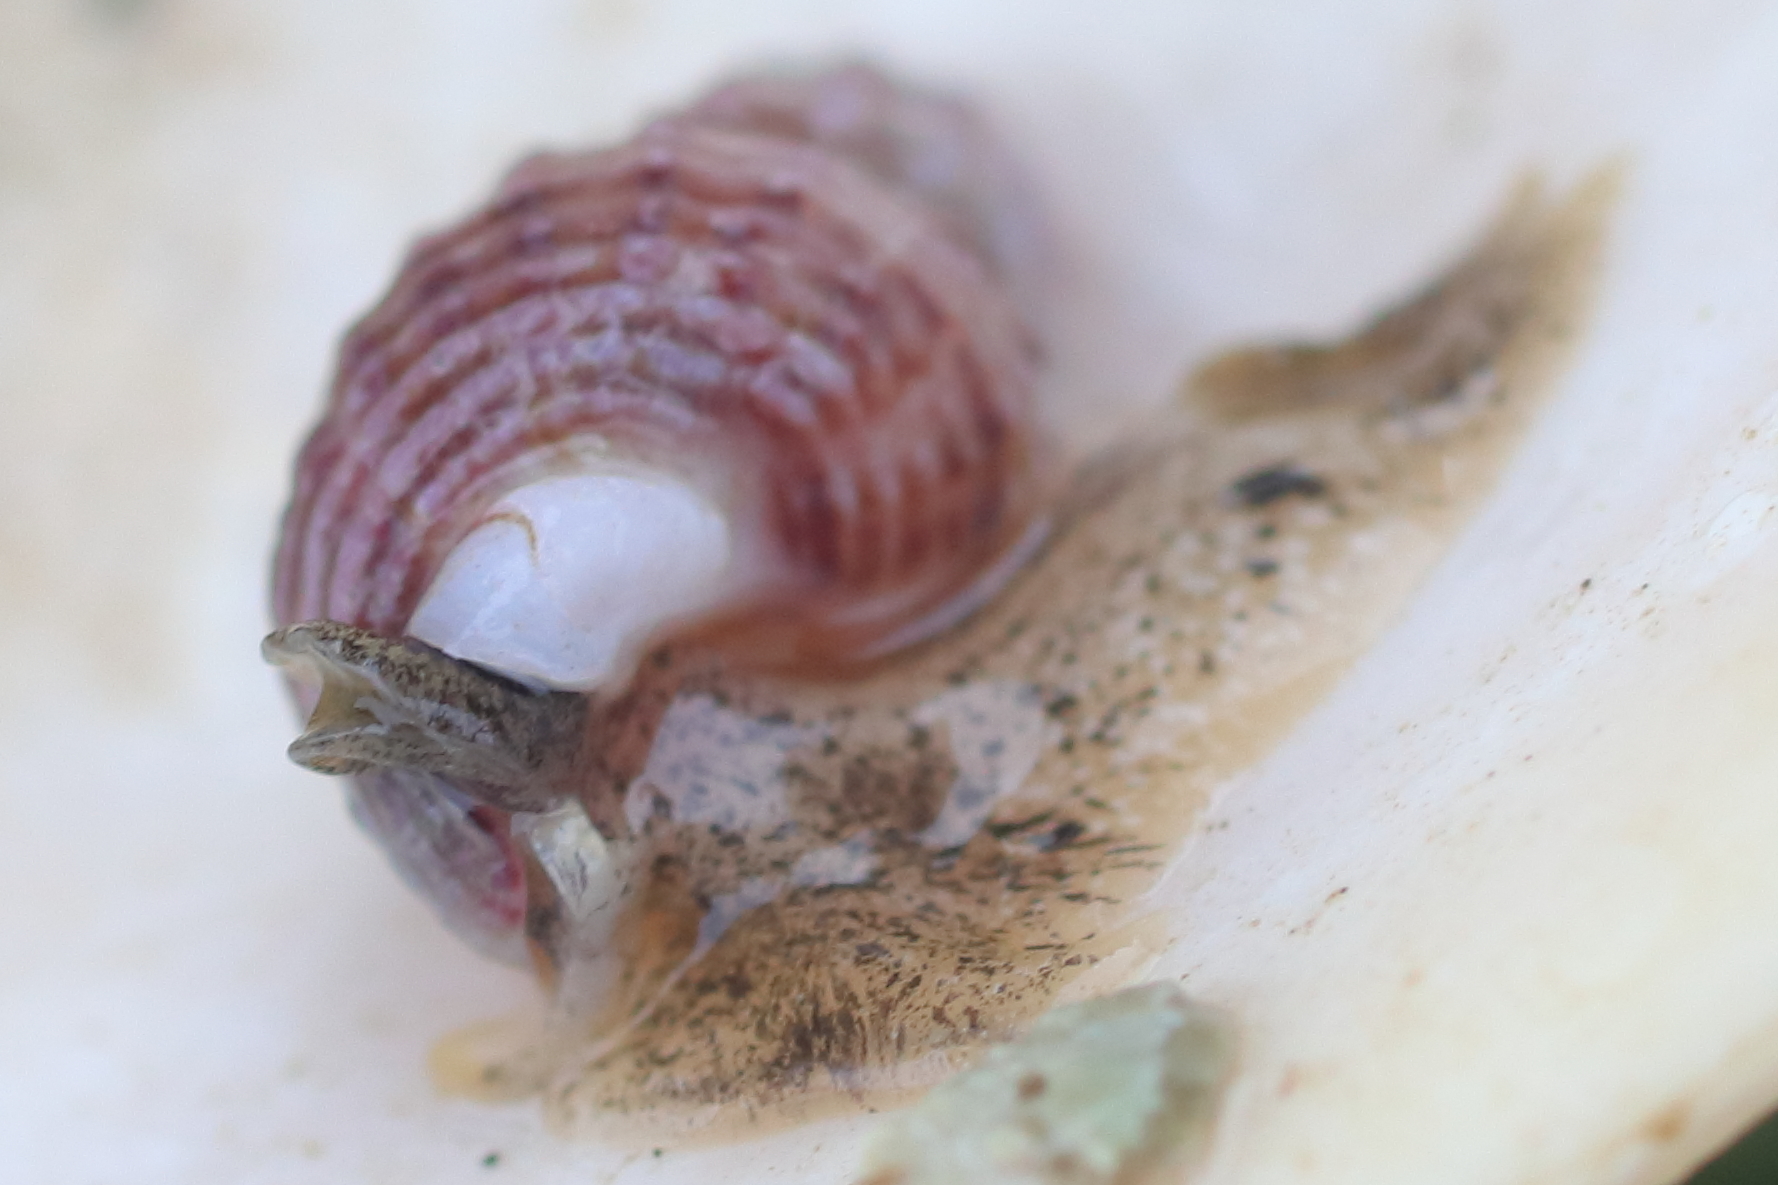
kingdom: Animalia
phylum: Mollusca
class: Gastropoda
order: Neogastropoda
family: Nassariidae
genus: Nassarius
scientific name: Nassarius mendicus
